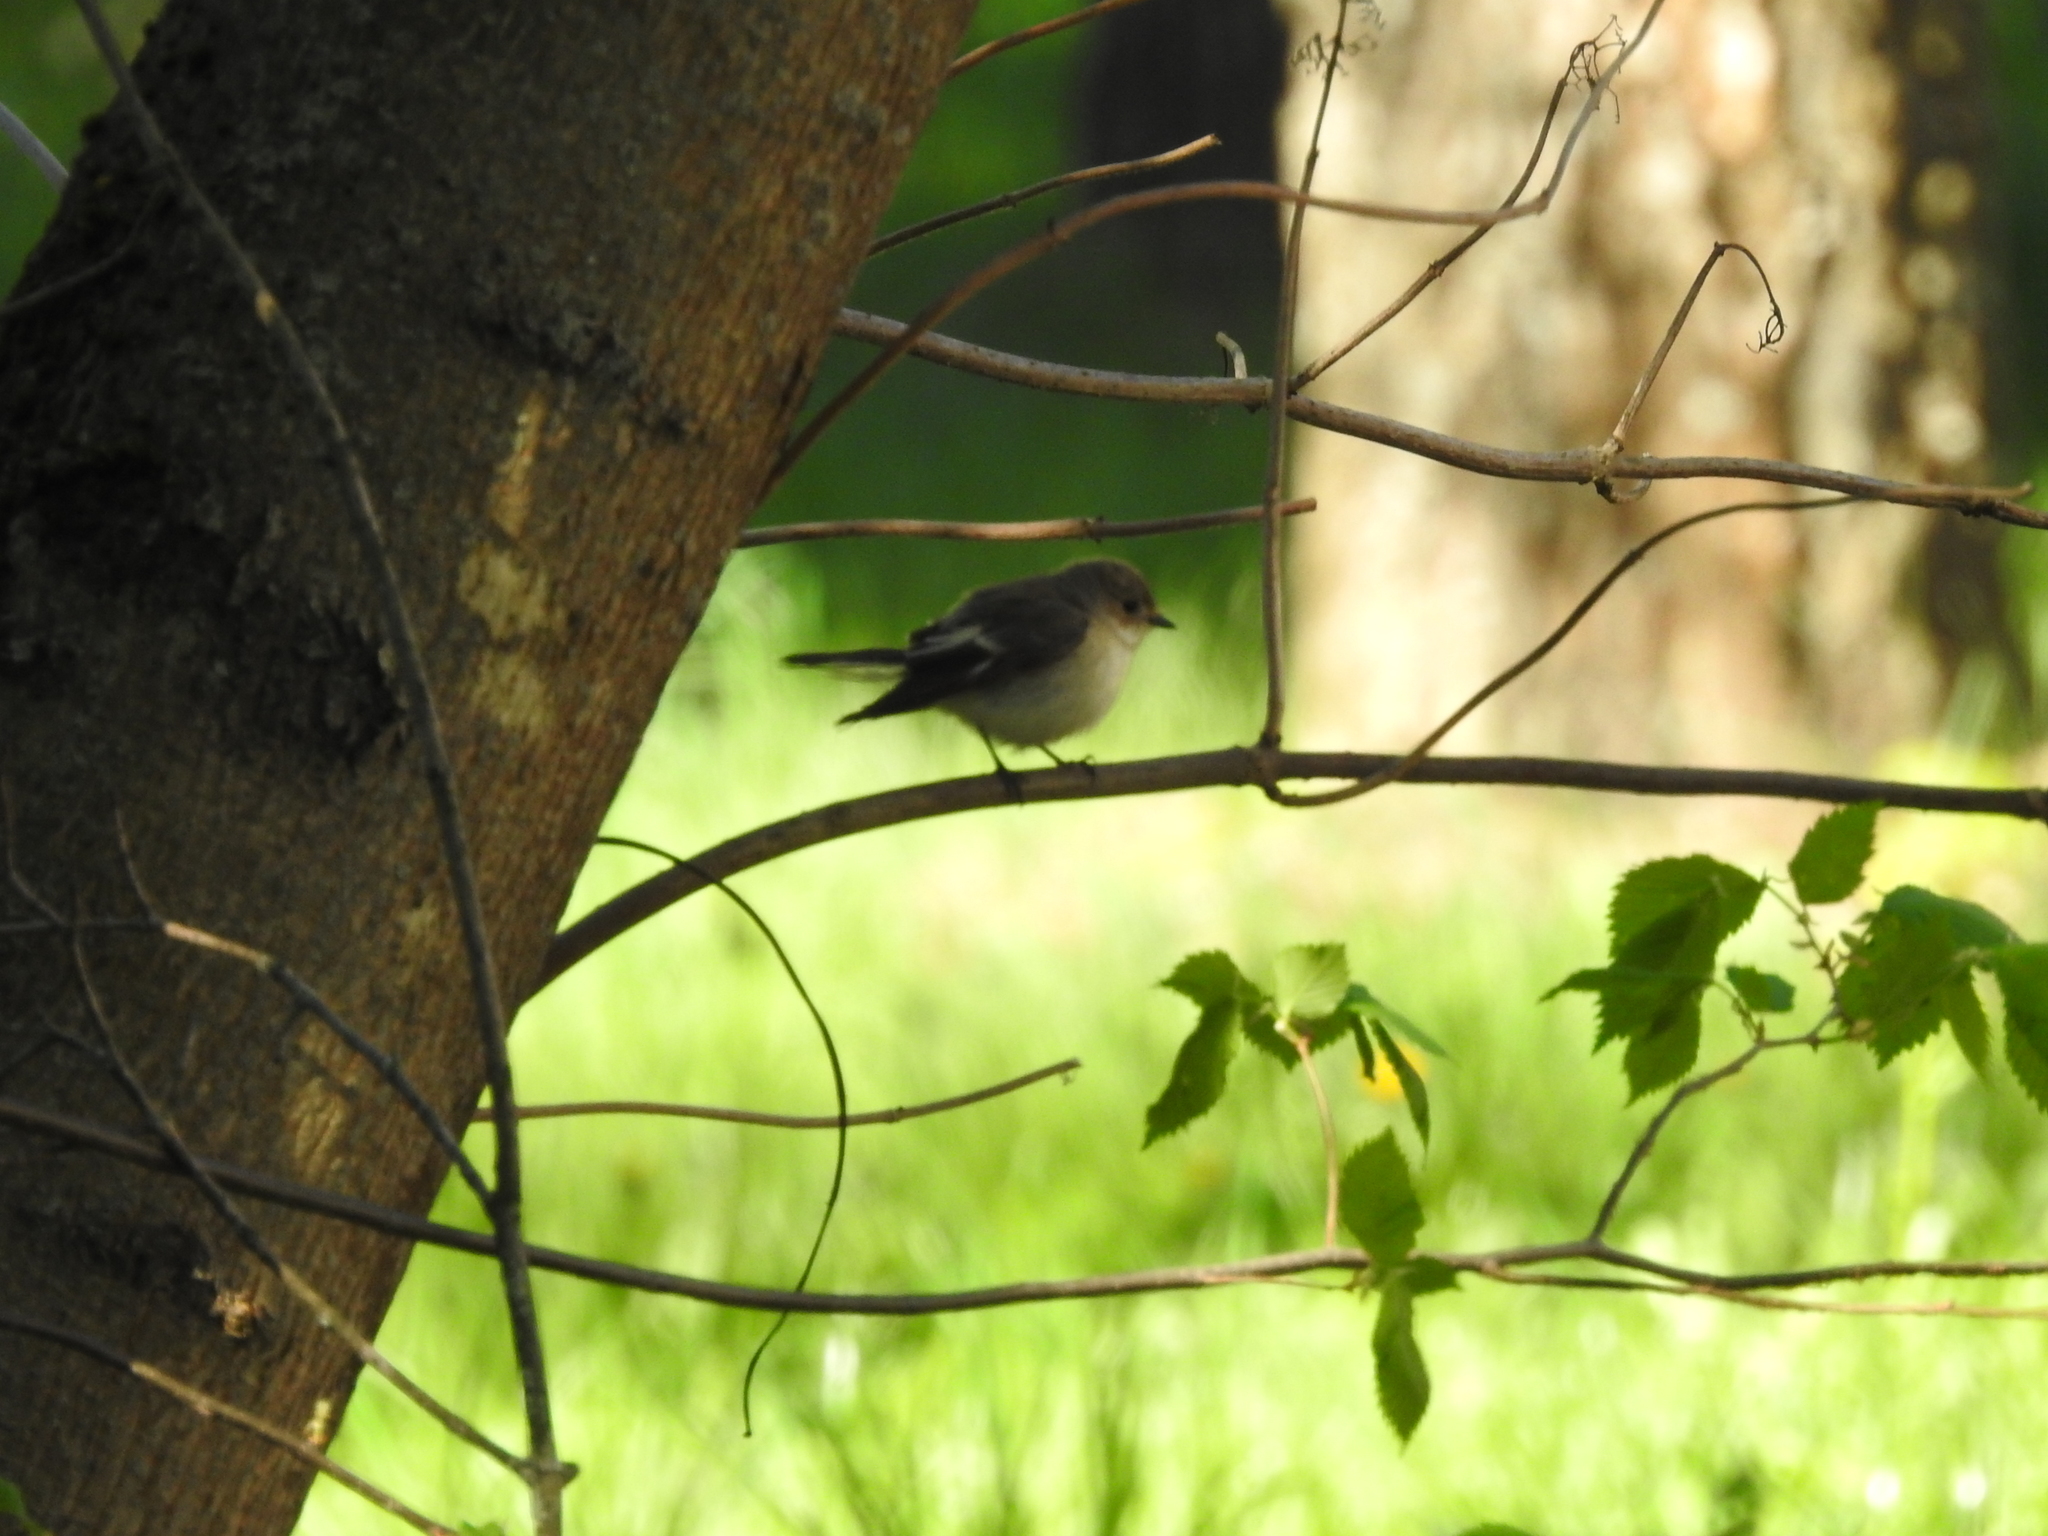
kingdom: Animalia
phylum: Chordata
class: Aves
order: Passeriformes
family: Muscicapidae
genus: Ficedula
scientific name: Ficedula hypoleuca
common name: European pied flycatcher
